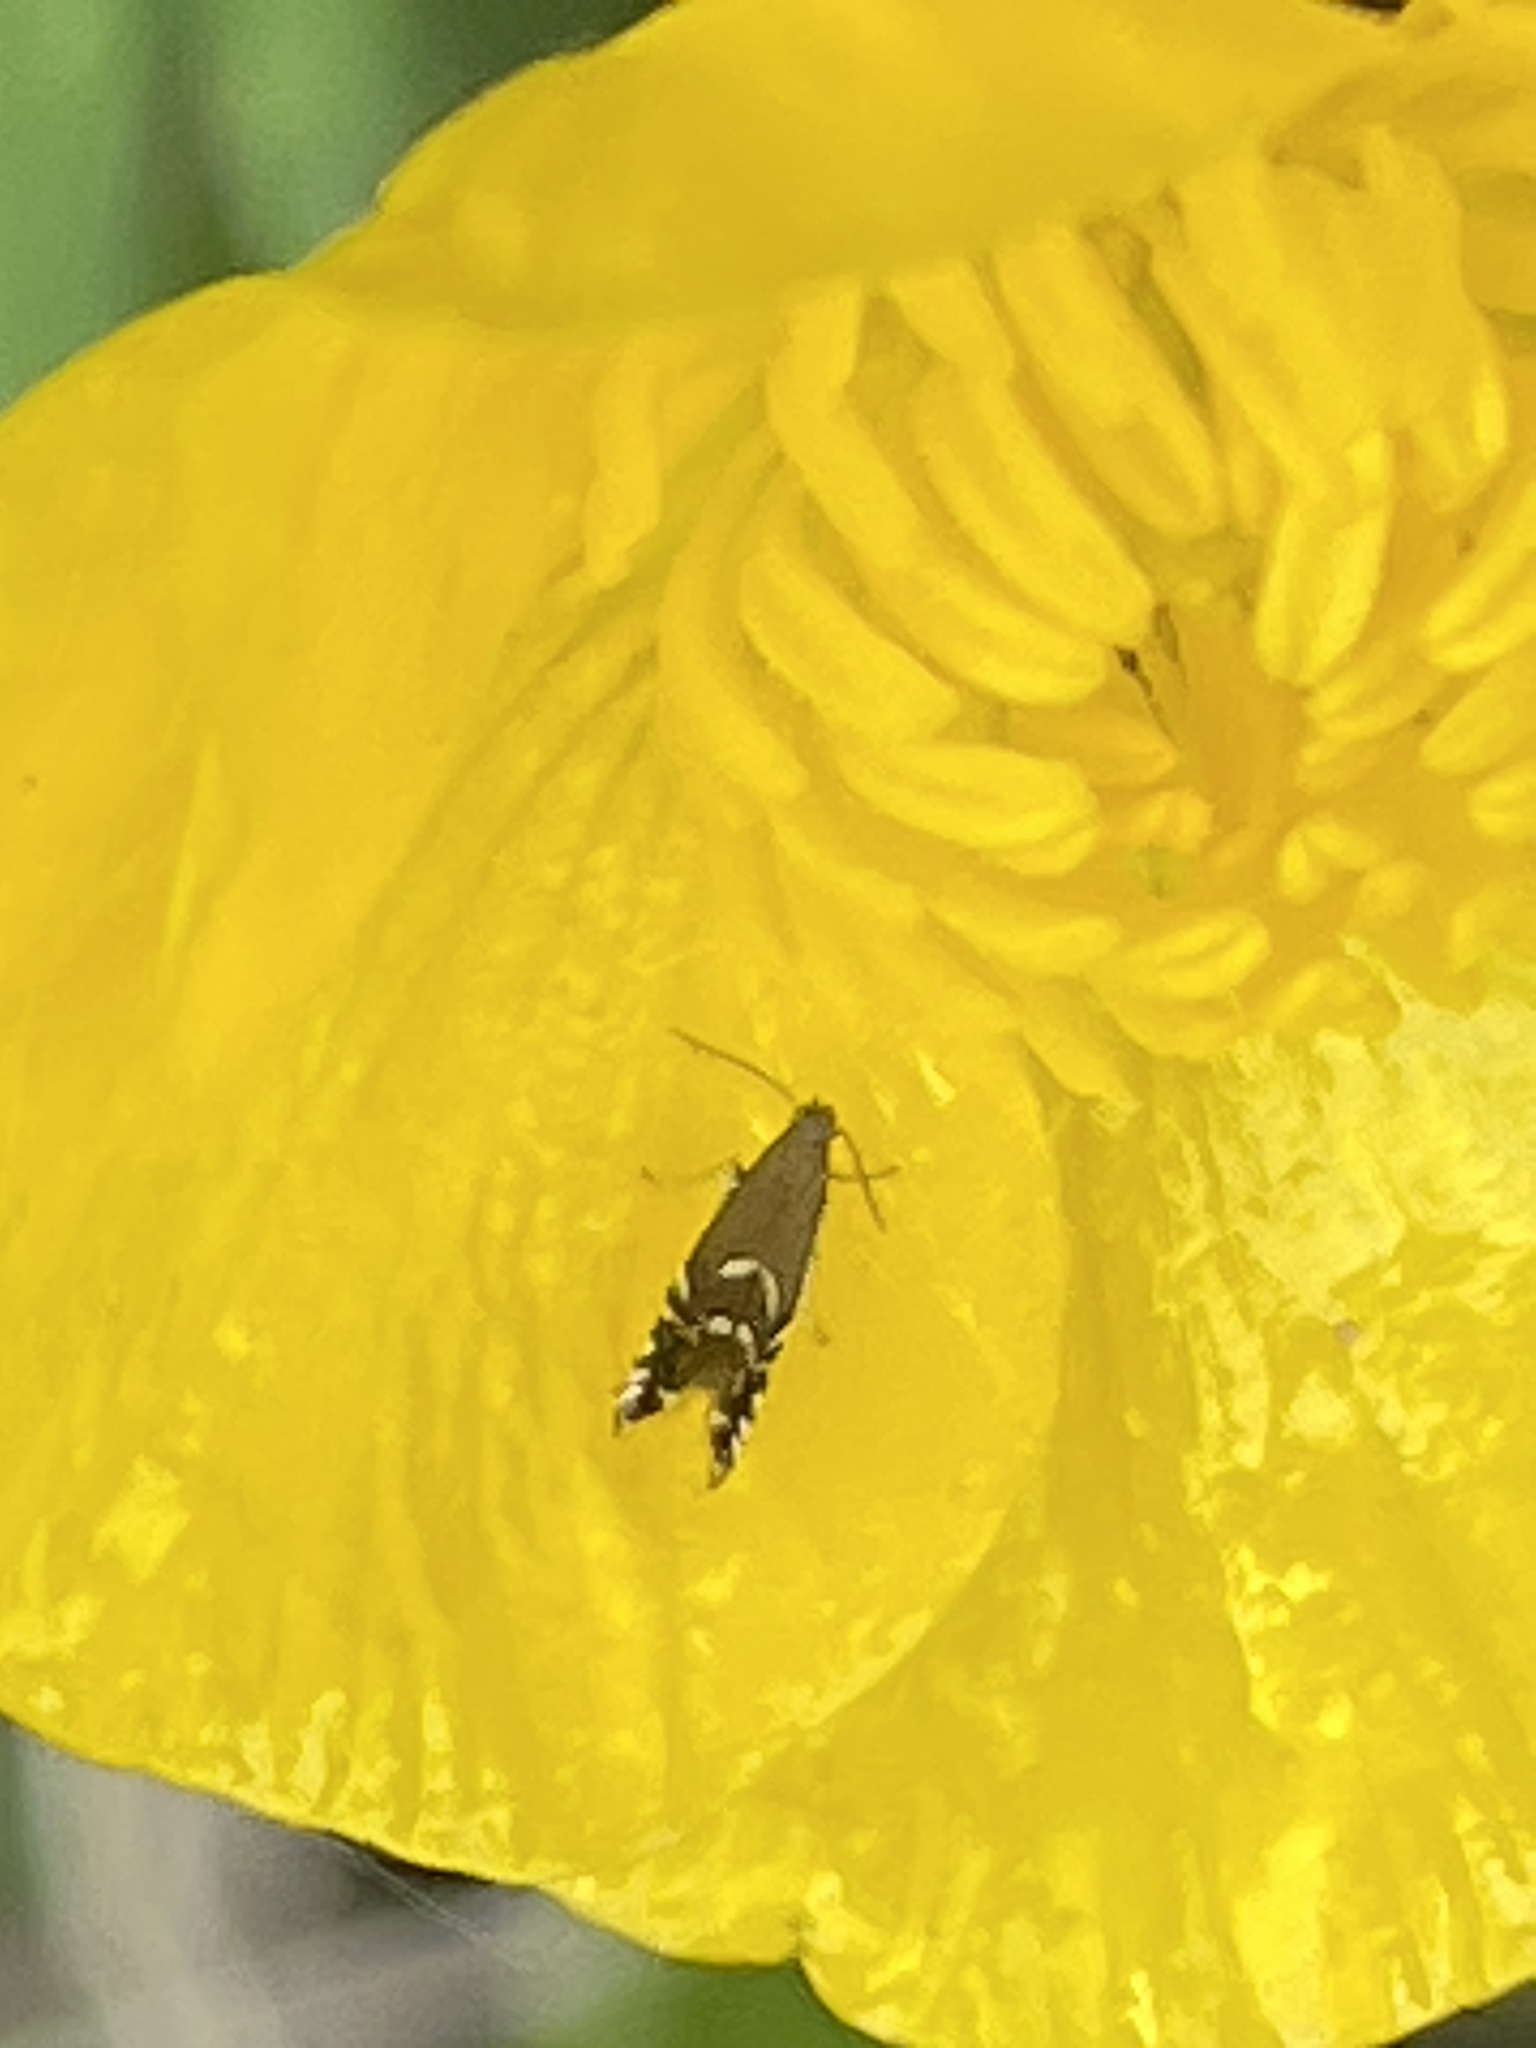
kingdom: Animalia
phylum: Arthropoda
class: Insecta
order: Lepidoptera
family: Glyphipterigidae
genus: Glyphipterix
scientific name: Glyphipterix simpliciella
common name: Cocksfoot moth
